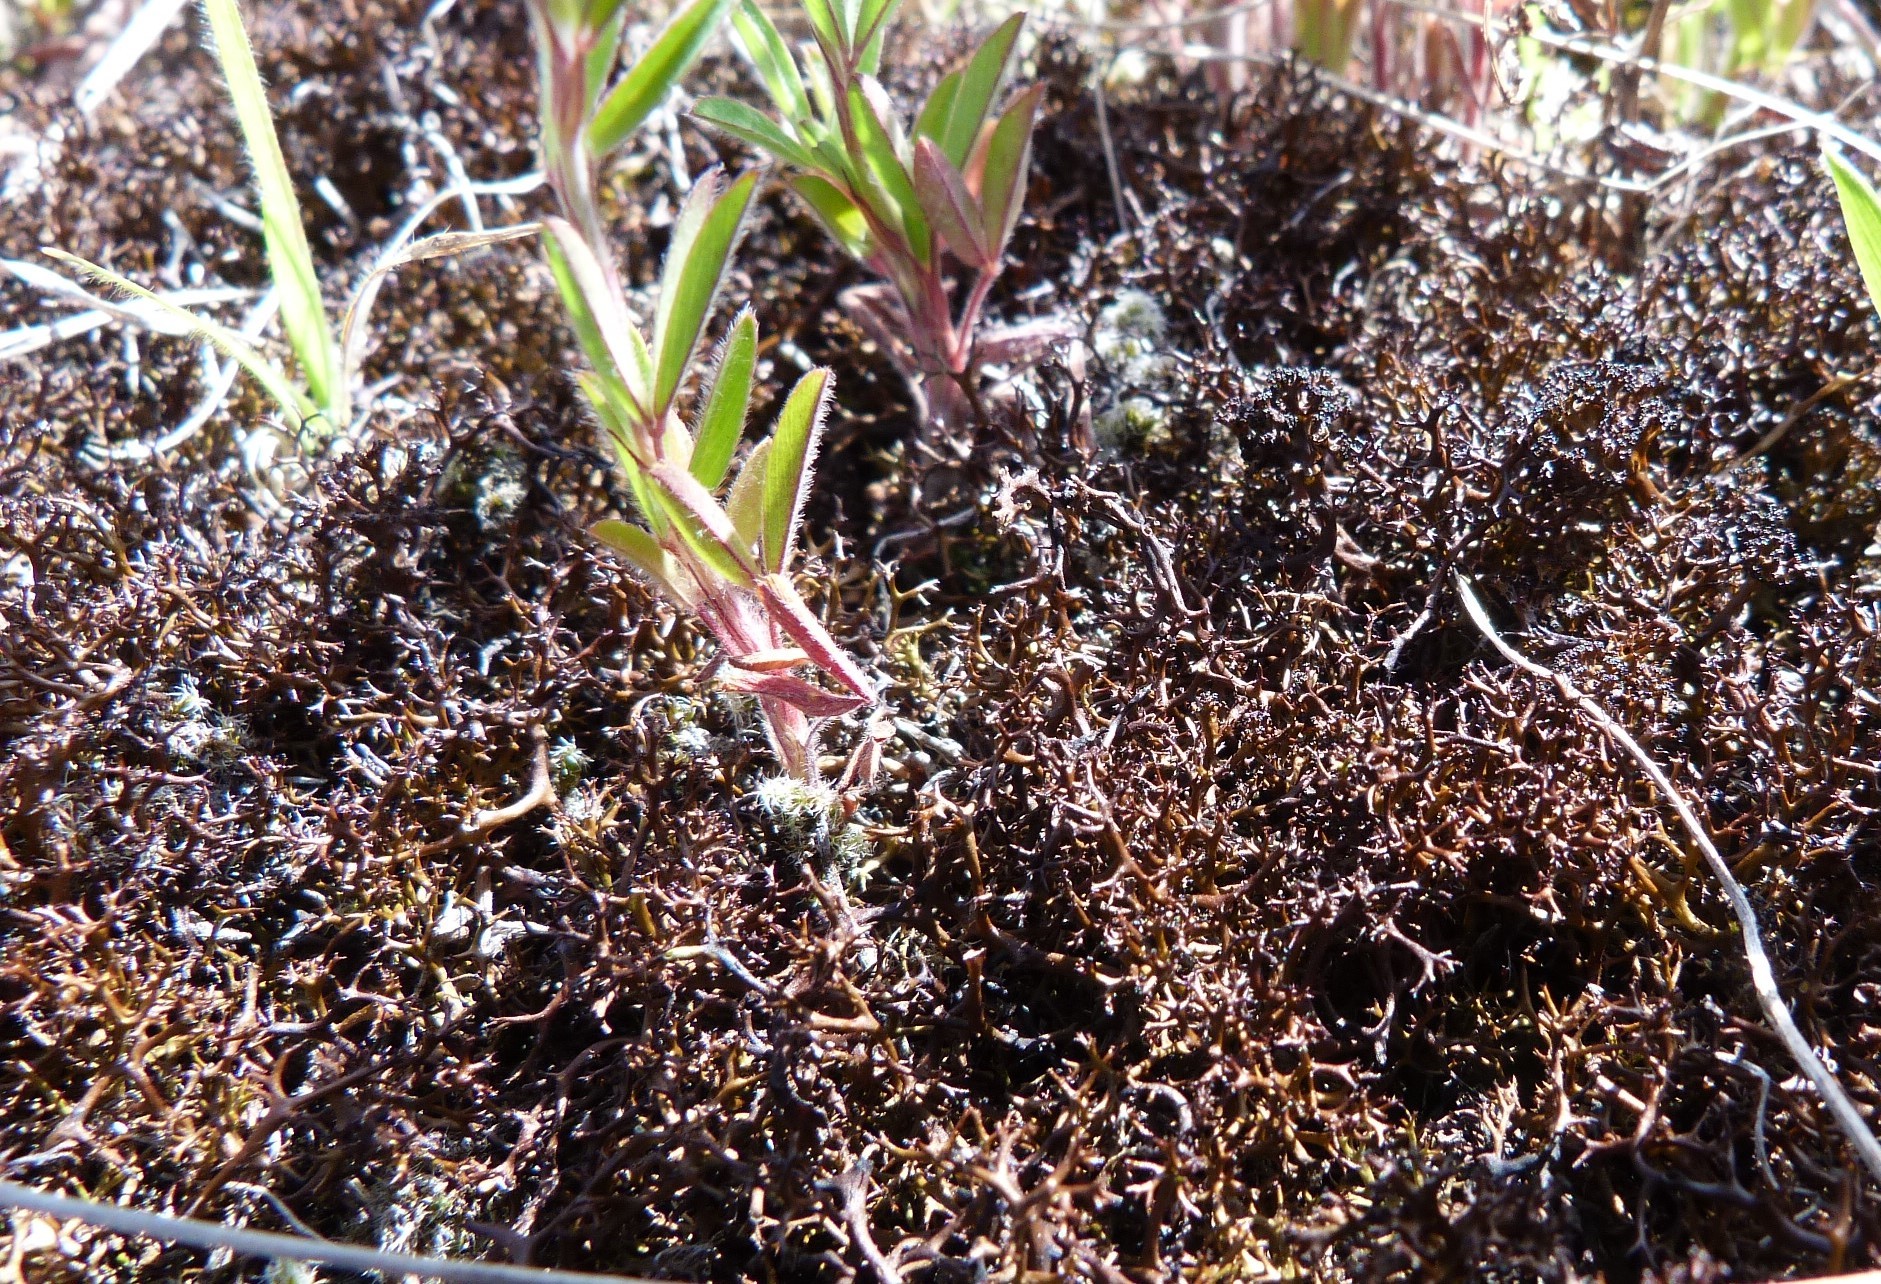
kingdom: Fungi
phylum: Ascomycota
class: Lecanoromycetes
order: Lecanorales
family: Cladoniaceae
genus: Cladia
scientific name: Cladia aggregata
